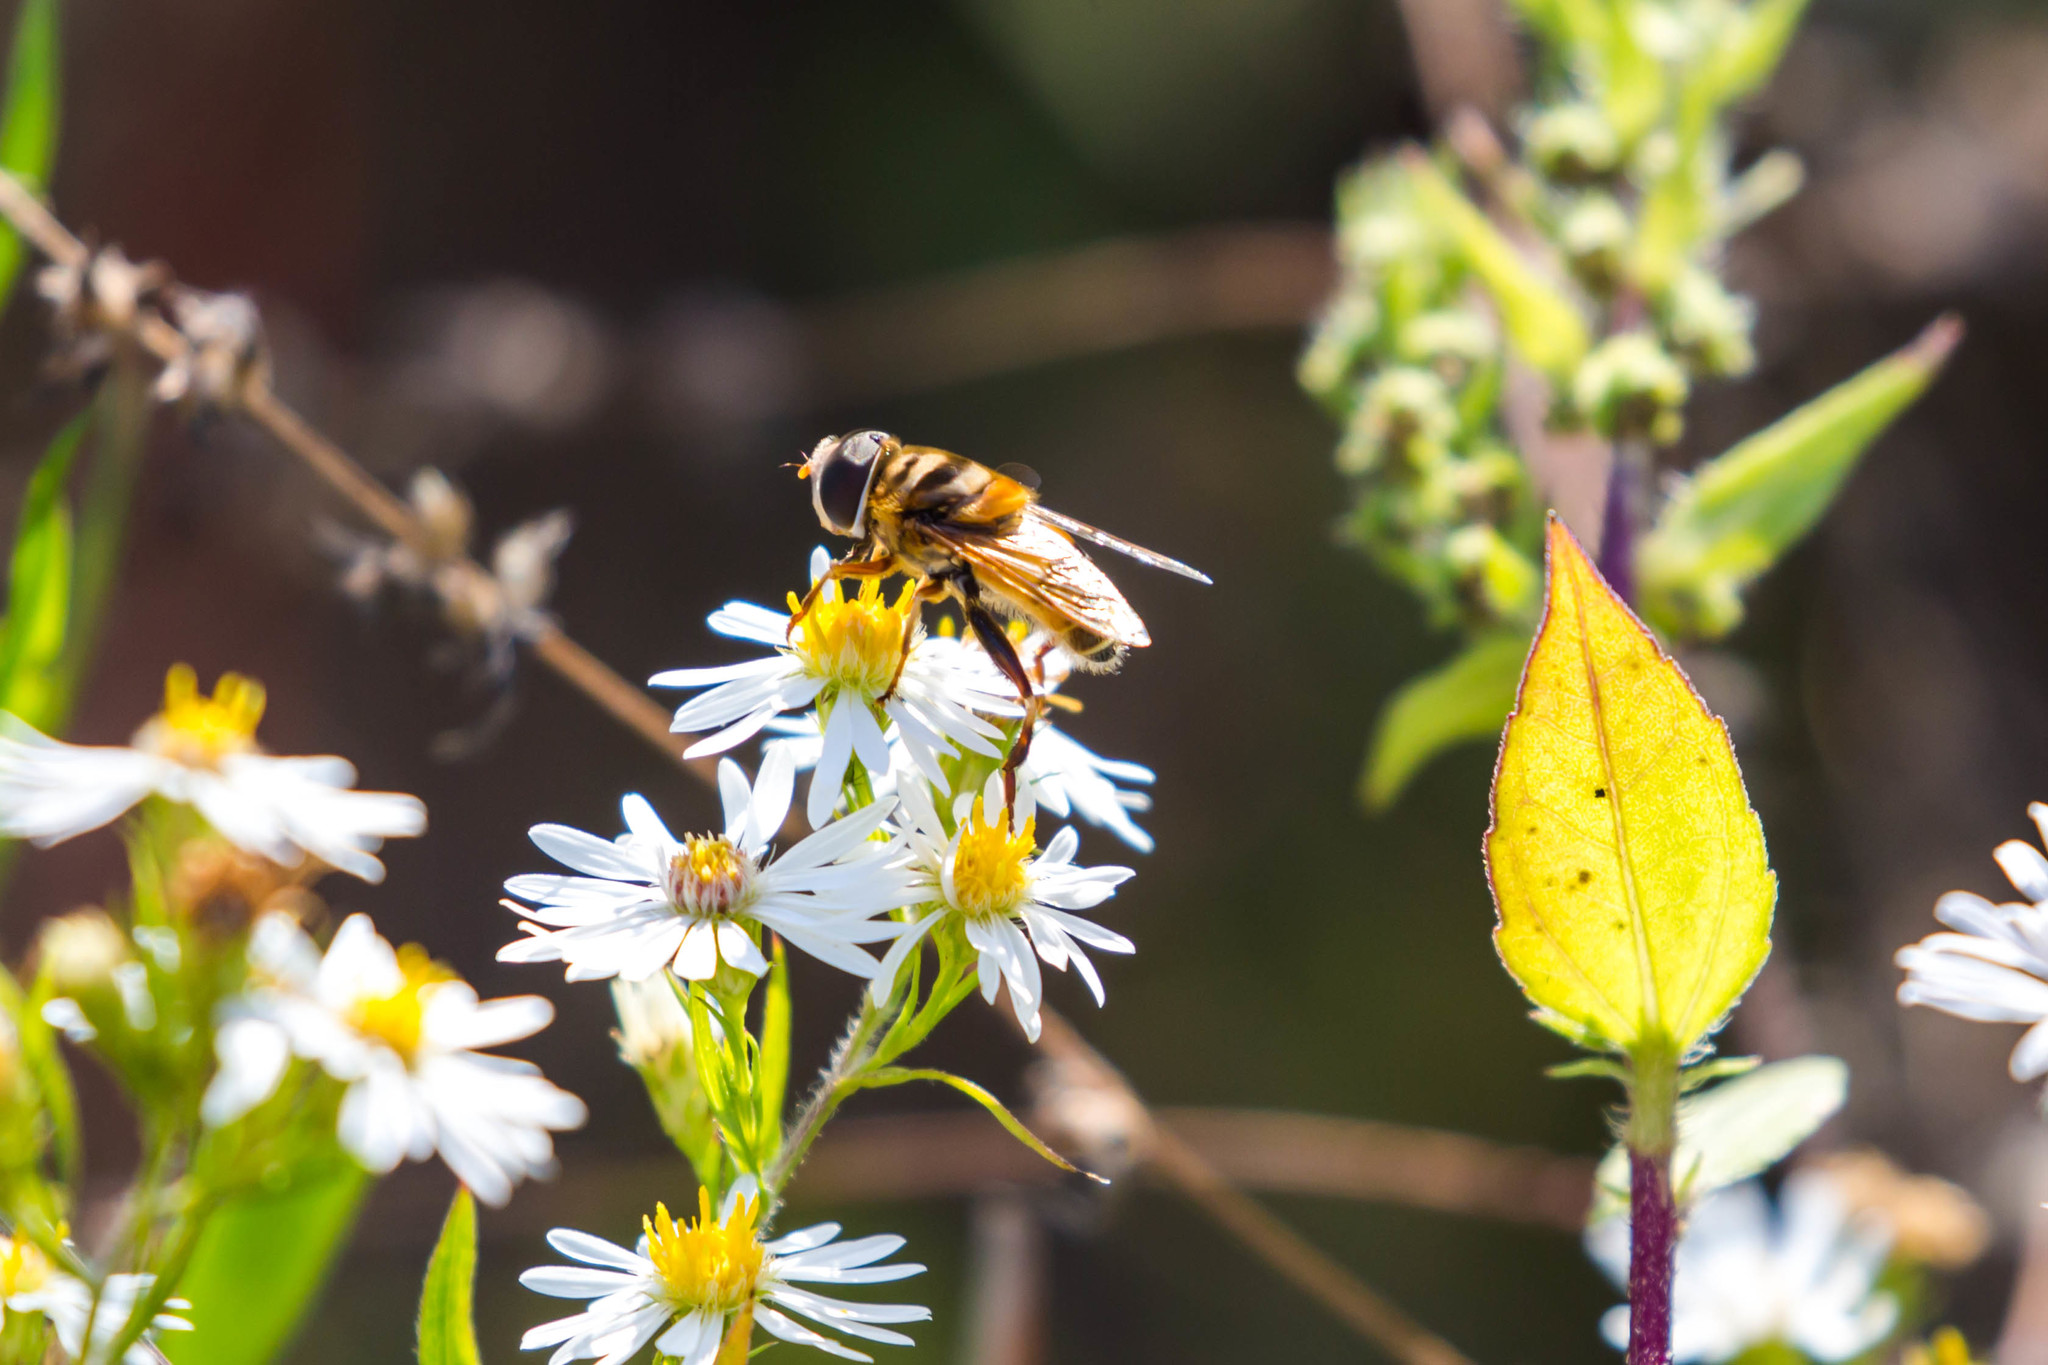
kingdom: Animalia
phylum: Arthropoda
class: Insecta
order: Diptera
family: Syrphidae
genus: Palpada
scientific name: Palpada vinetorum
